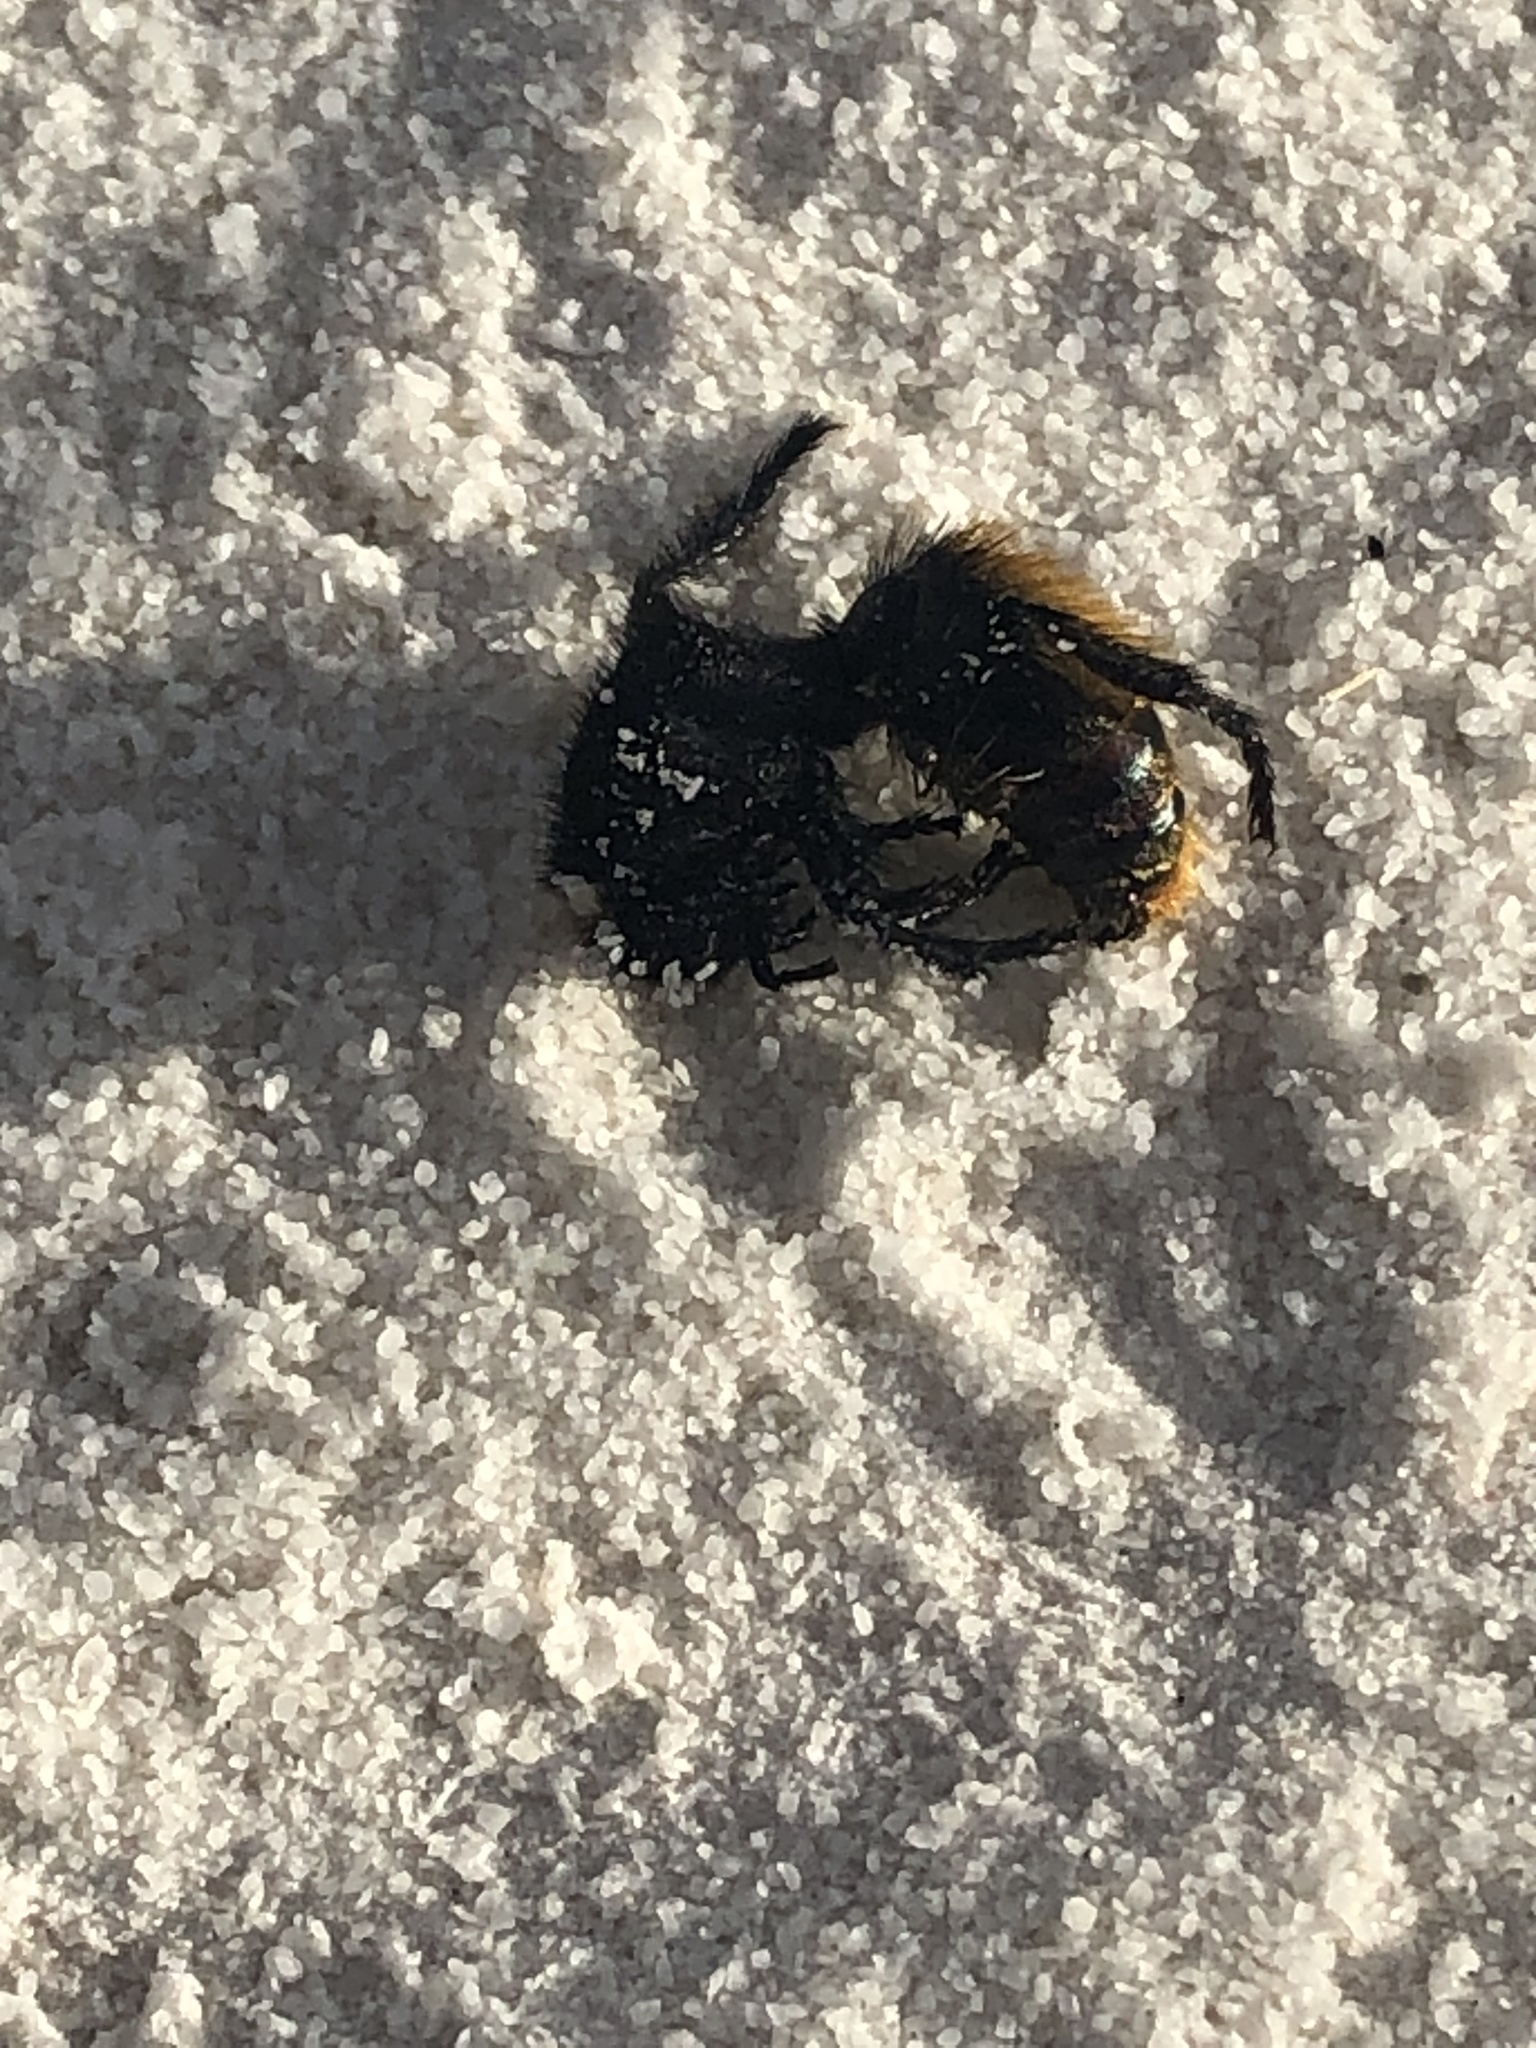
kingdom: Animalia
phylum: Arthropoda
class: Insecta
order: Hymenoptera
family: Mutillidae
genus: Dasymutilla
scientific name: Dasymutilla
